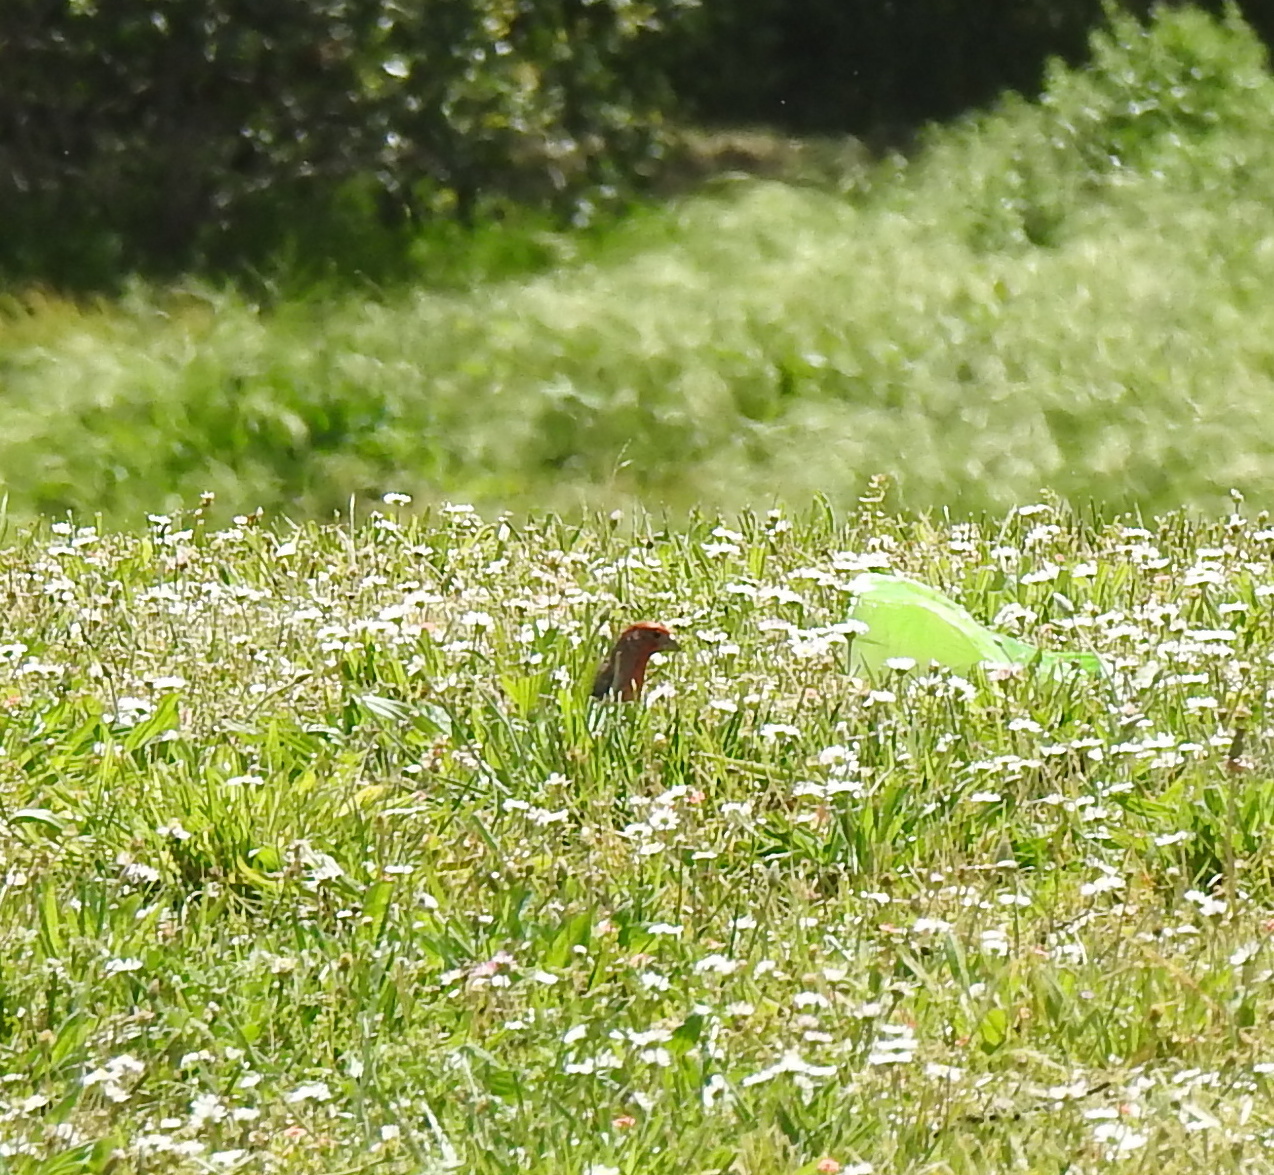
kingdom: Animalia
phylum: Chordata
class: Aves
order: Passeriformes
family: Fringillidae
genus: Haemorhous
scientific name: Haemorhous mexicanus
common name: House finch
